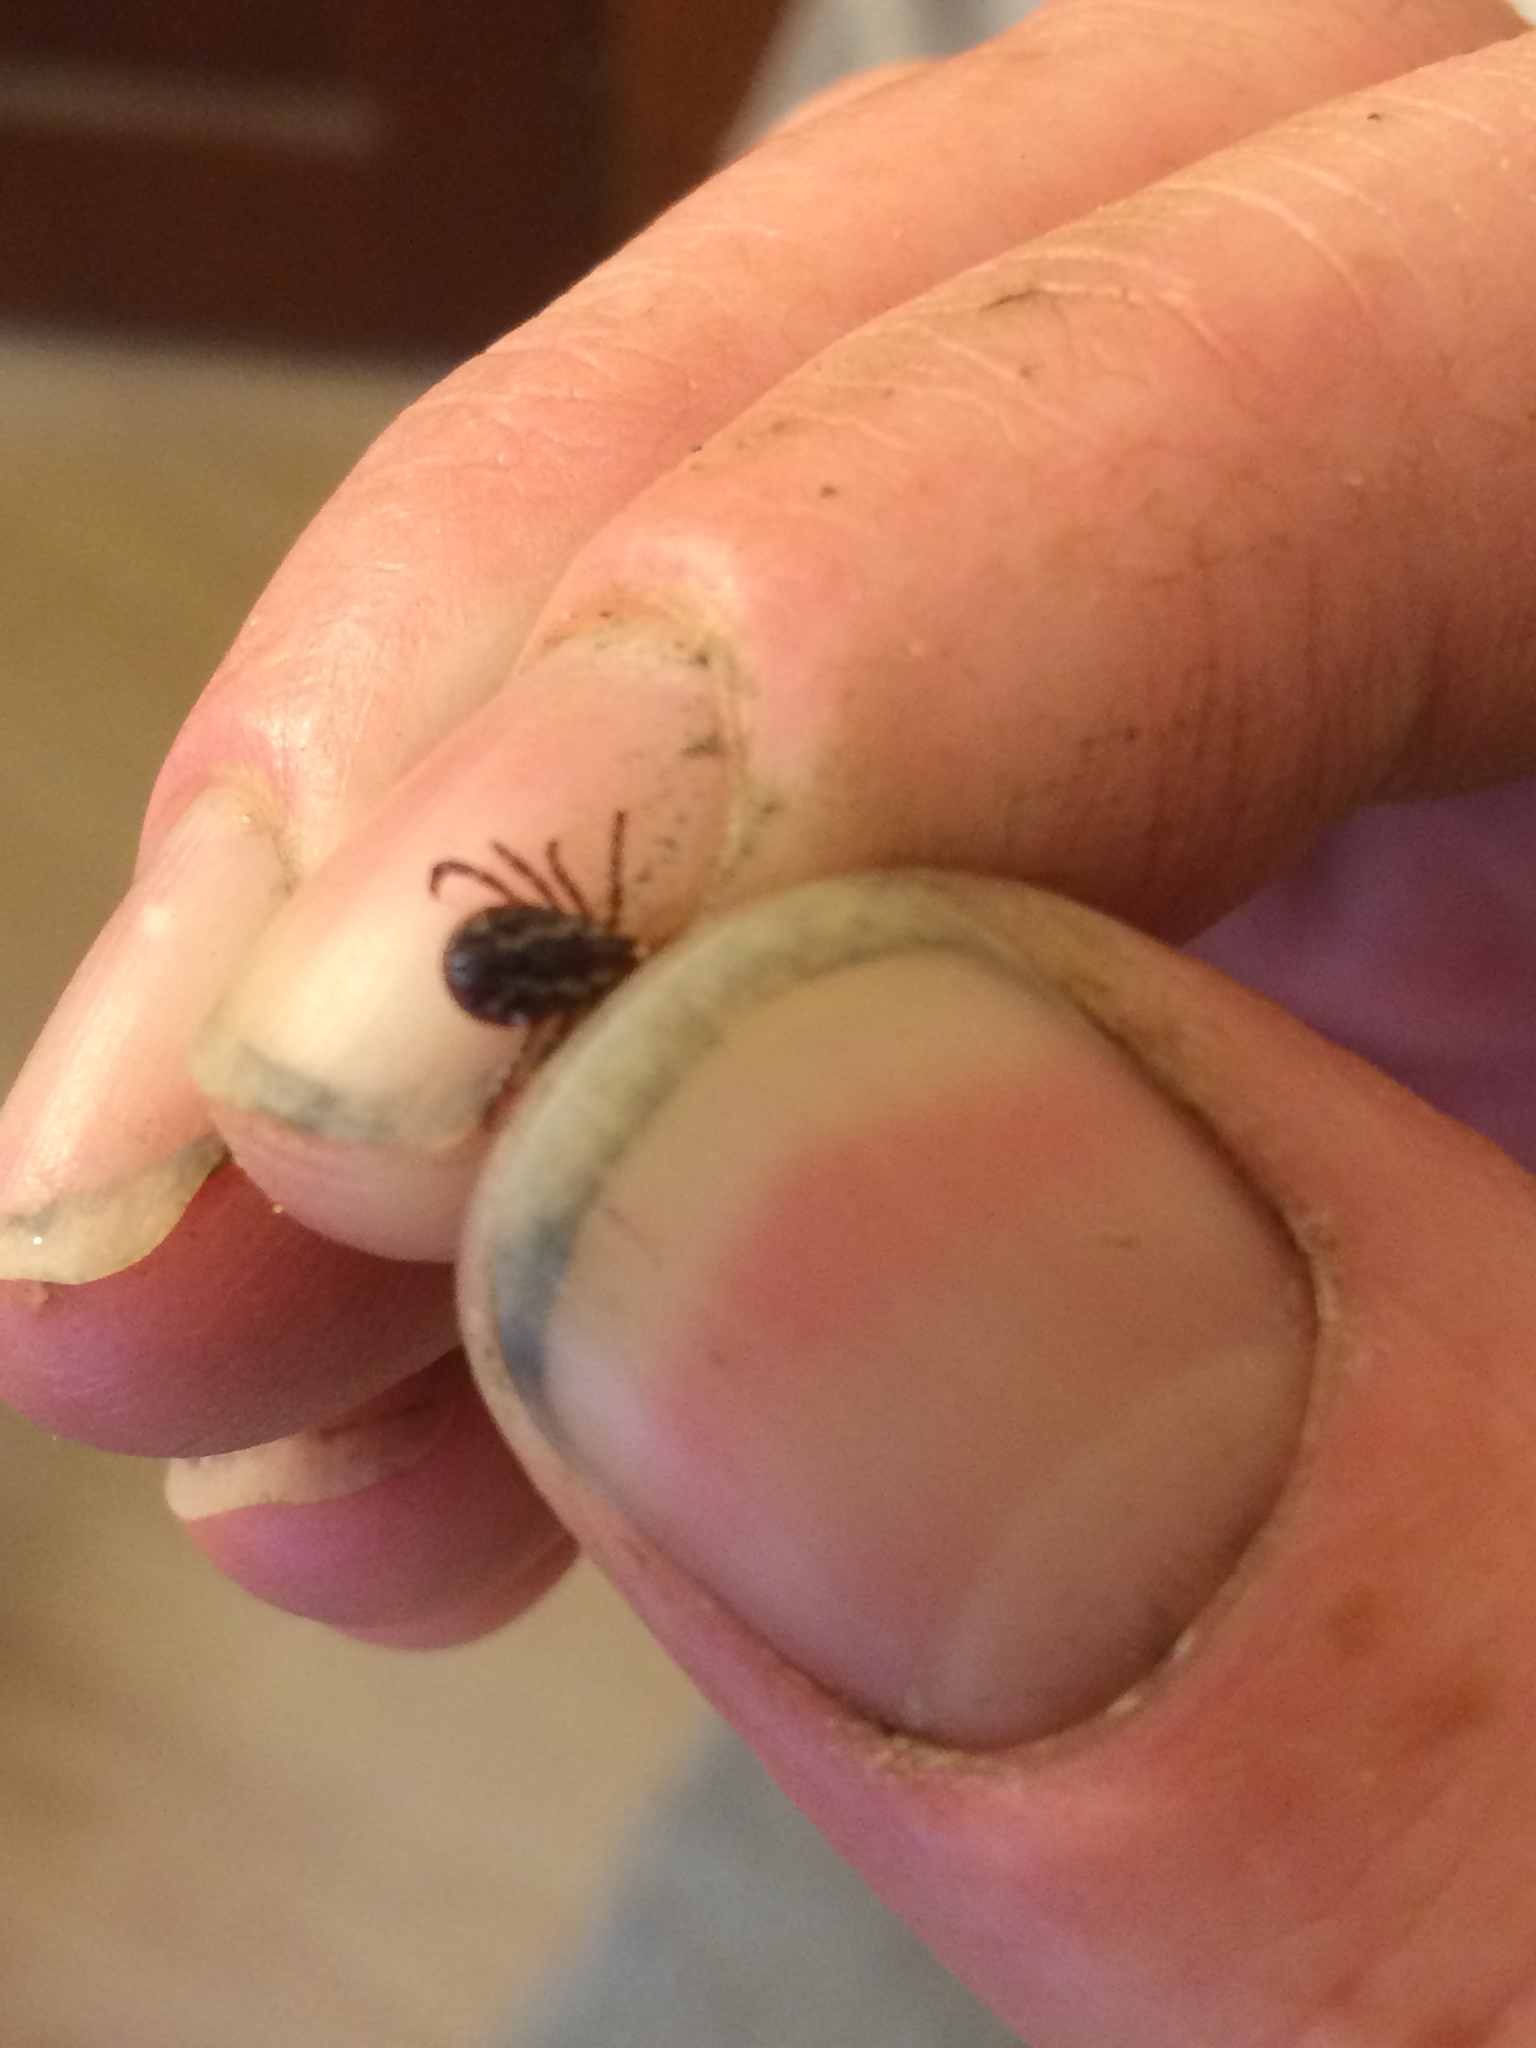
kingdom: Animalia
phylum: Arthropoda
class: Arachnida
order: Ixodida
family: Ixodidae
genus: Dermacentor
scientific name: Dermacentor variabilis
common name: American dog tick
